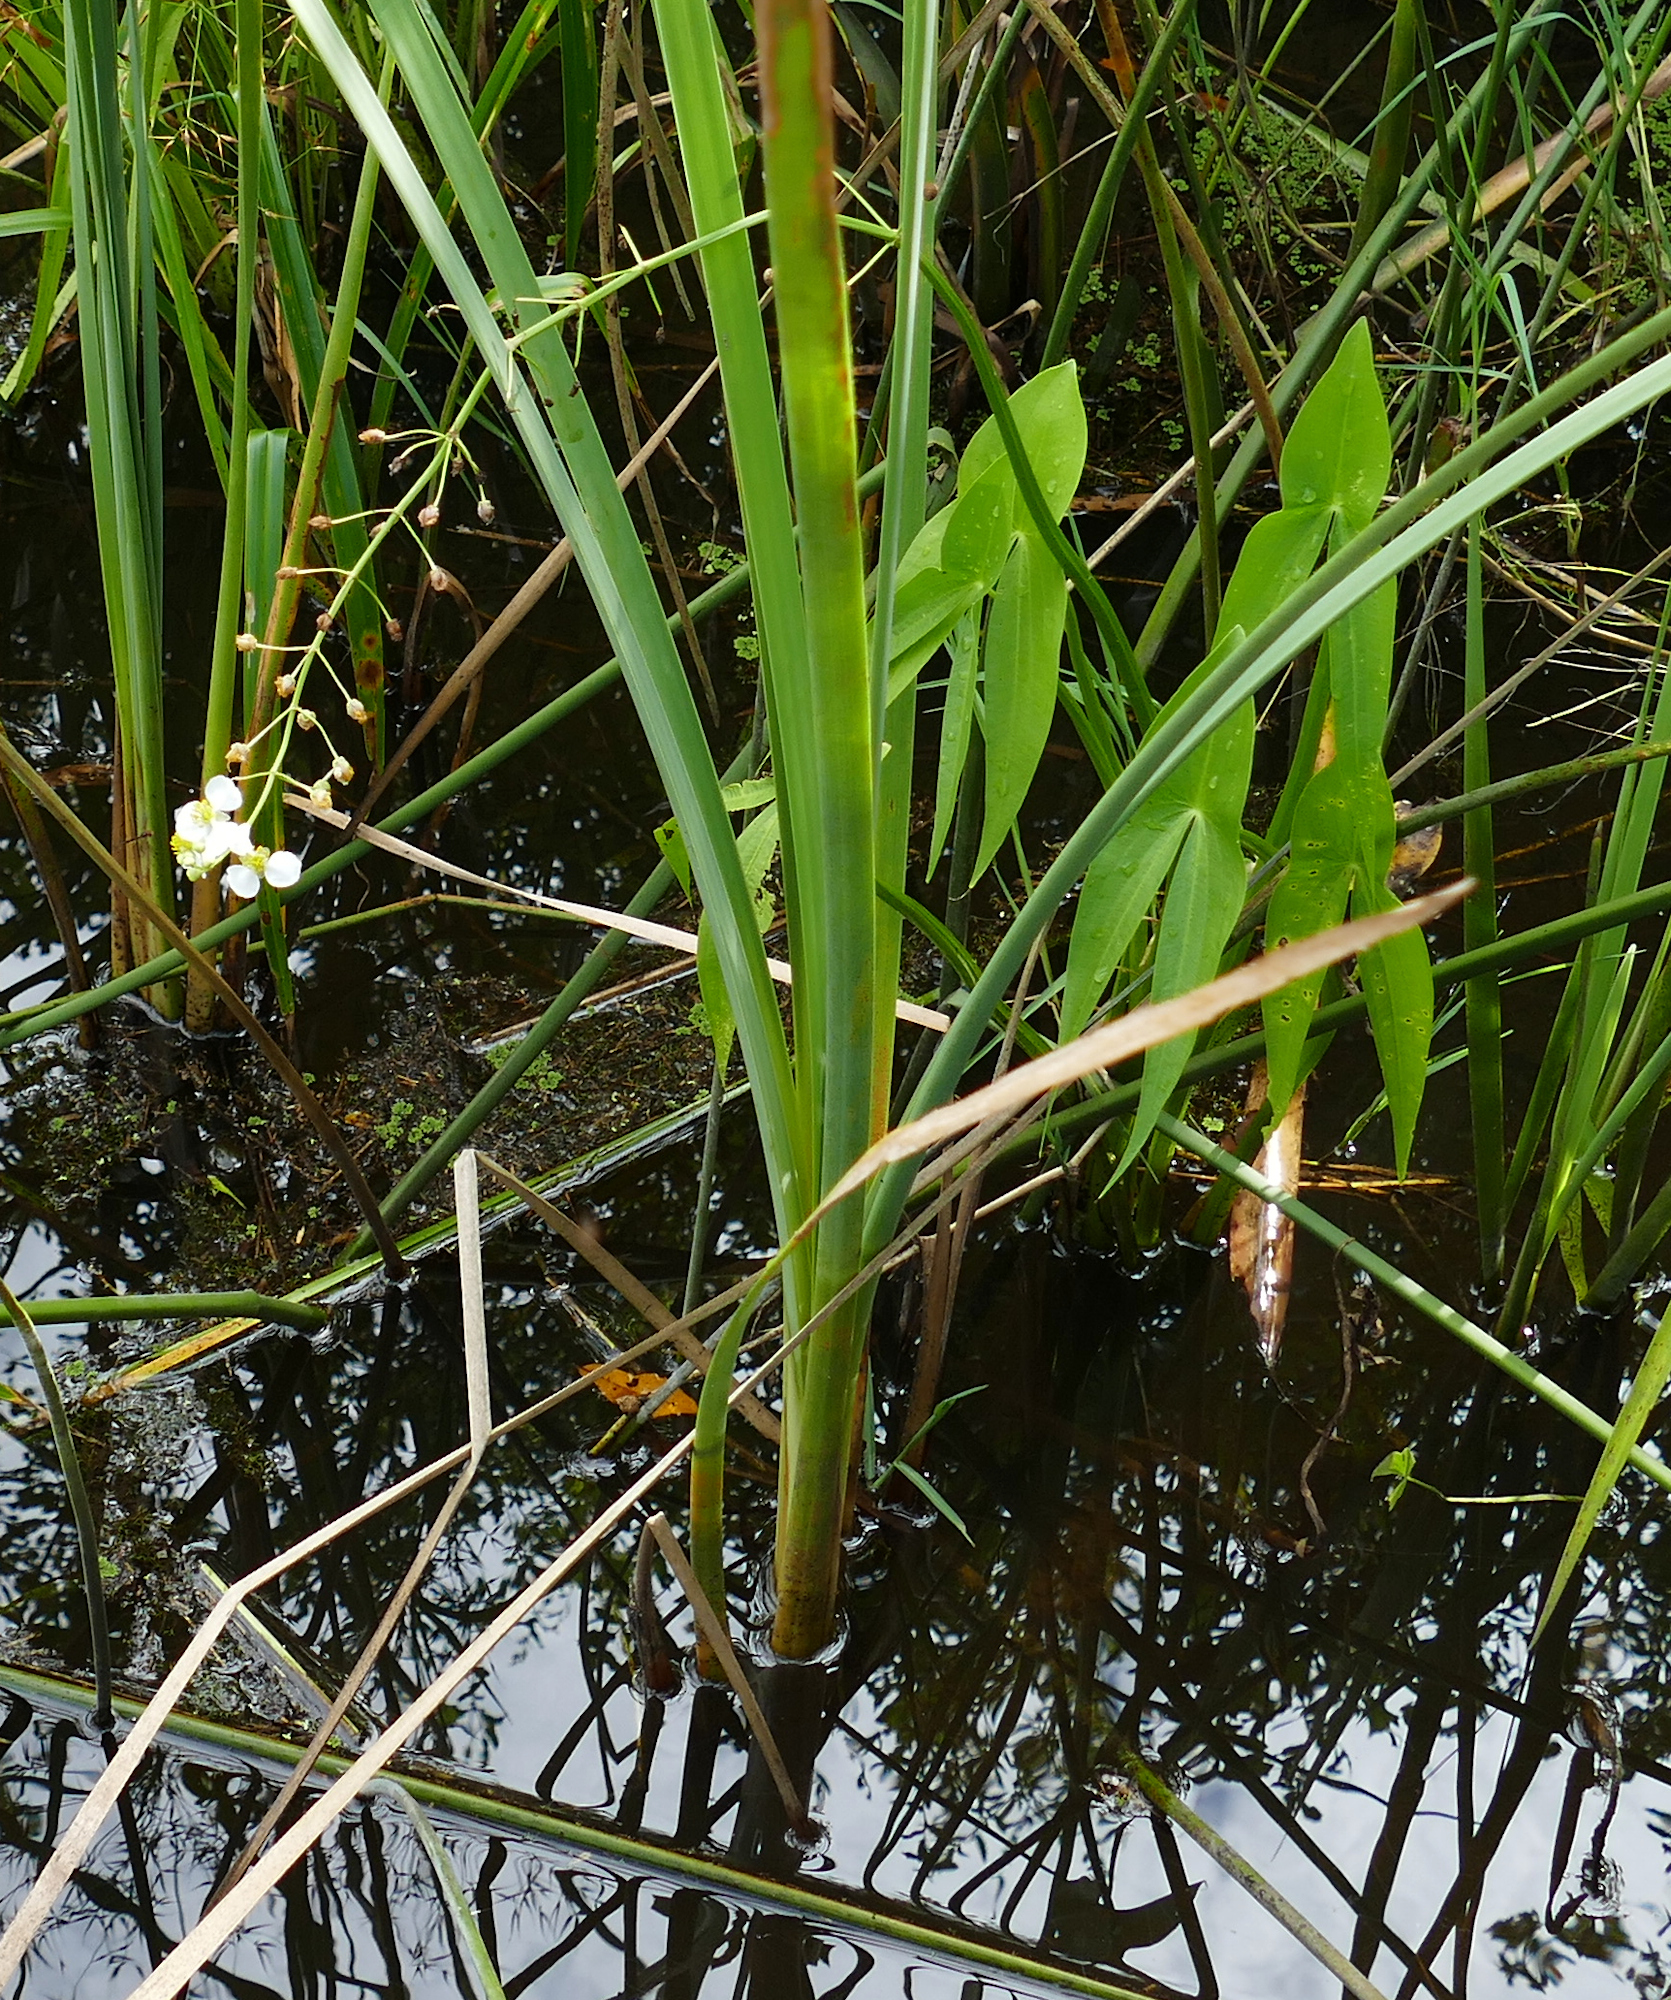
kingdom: Plantae
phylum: Tracheophyta
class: Liliopsida
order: Alismatales
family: Alismataceae
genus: Sagittaria
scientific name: Sagittaria latifolia
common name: Duck-potato
